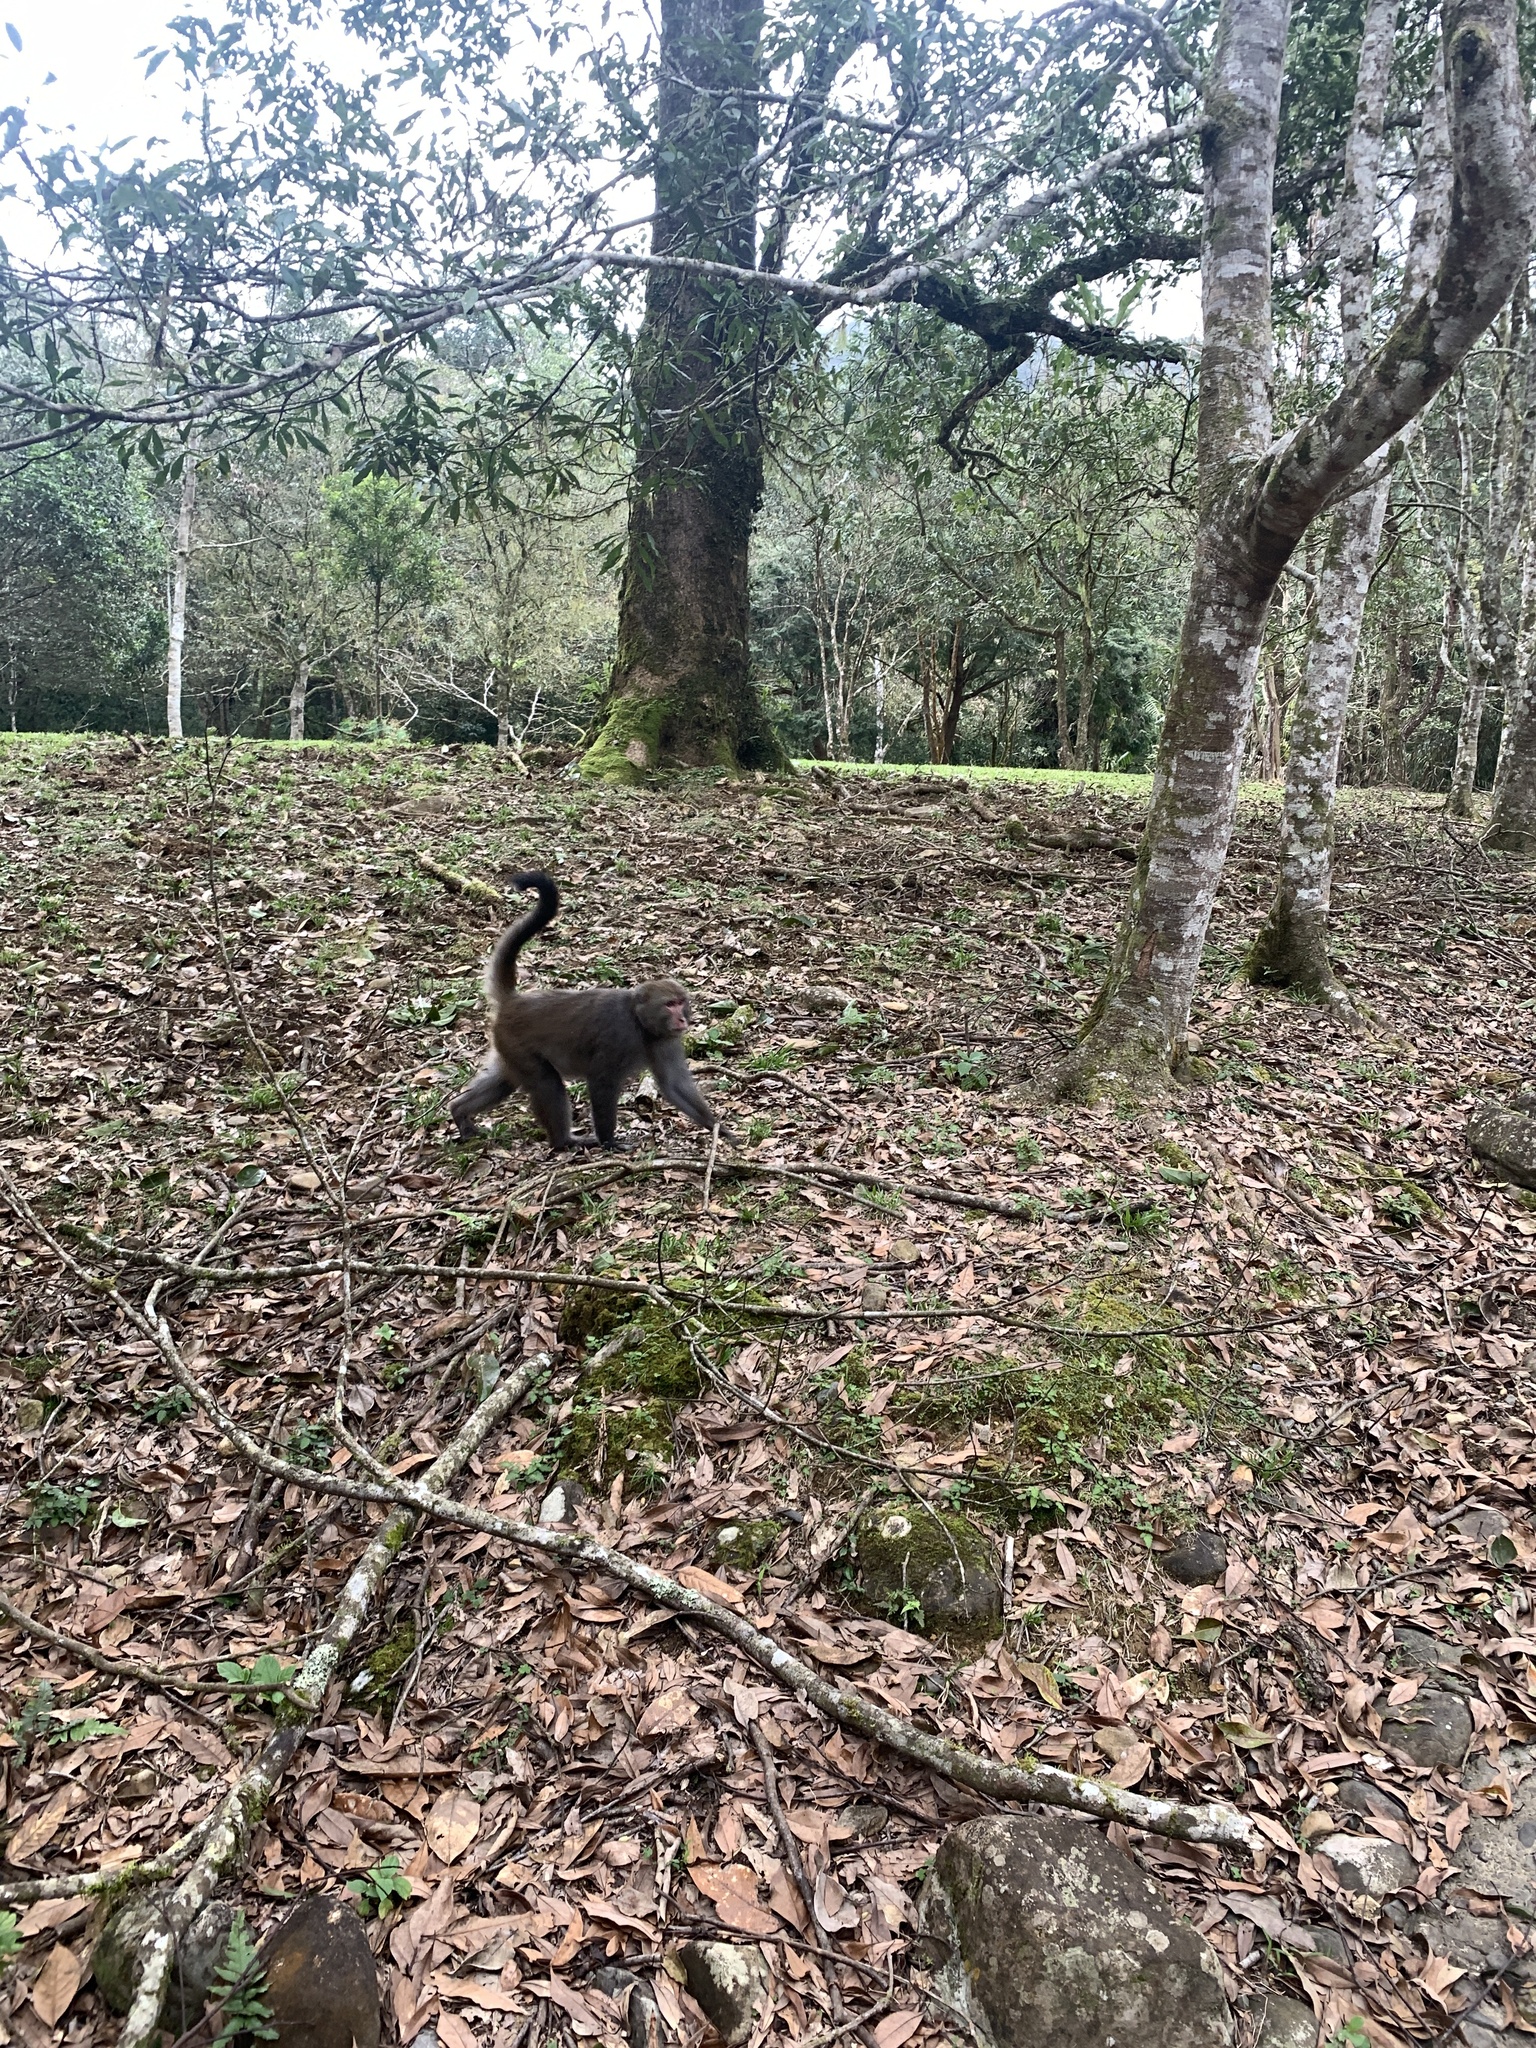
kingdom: Animalia
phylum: Chordata
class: Mammalia
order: Primates
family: Cercopithecidae
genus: Macaca
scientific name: Macaca cyclopis
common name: Formosan rock macaque
